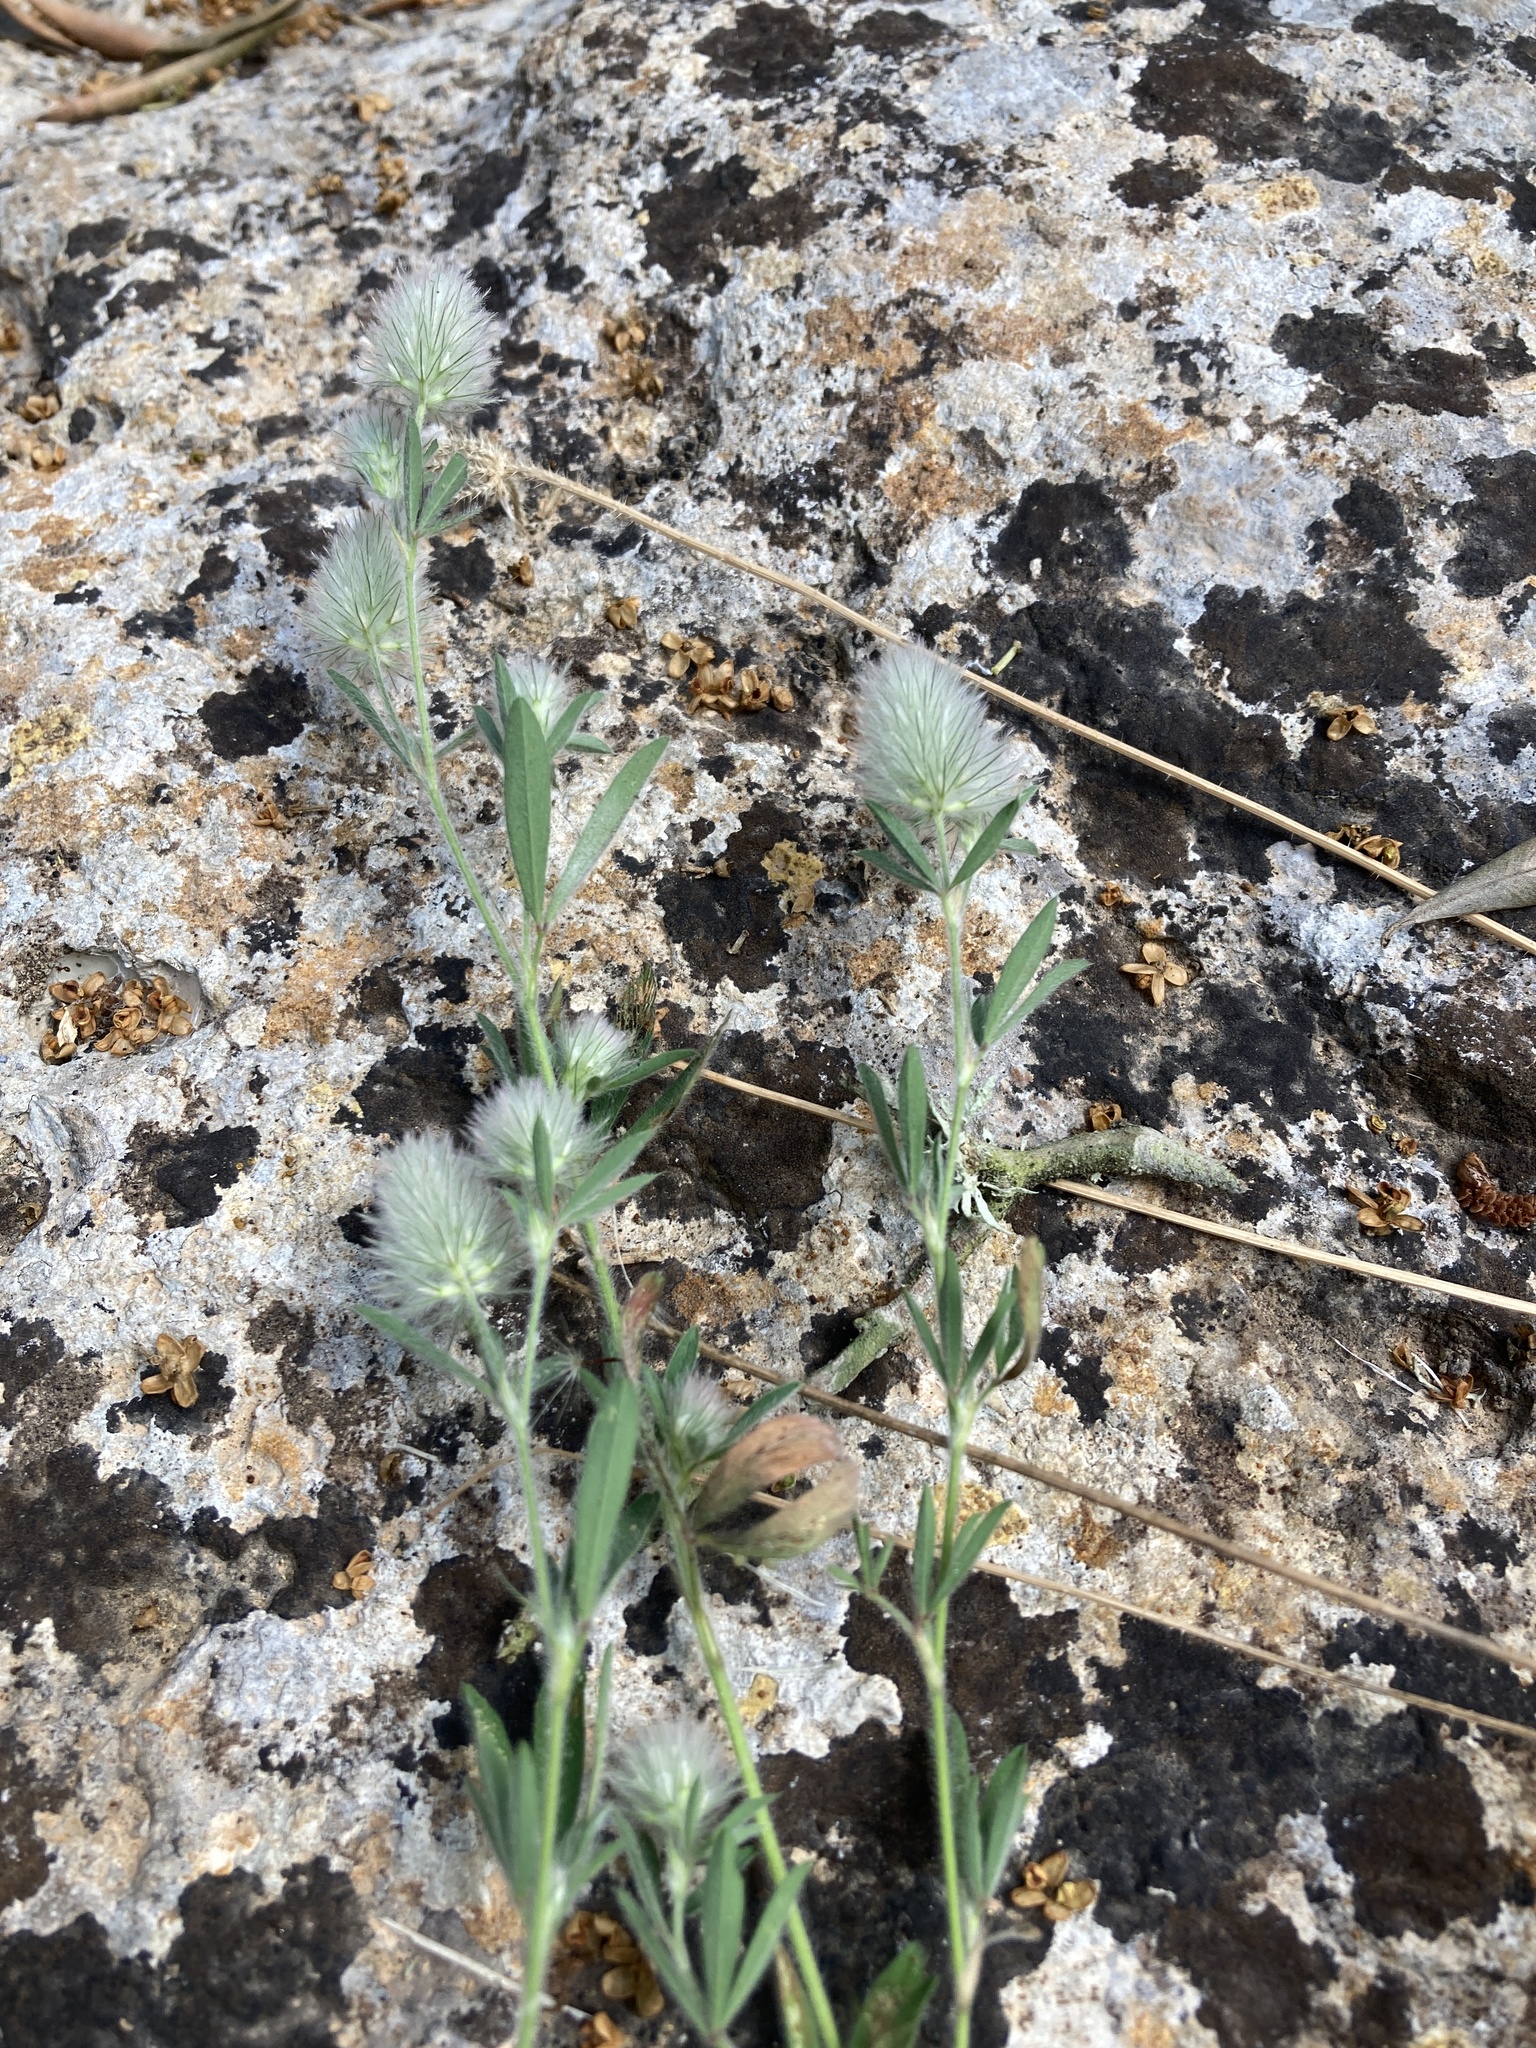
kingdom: Plantae
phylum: Tracheophyta
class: Magnoliopsida
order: Fabales
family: Fabaceae
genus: Trifolium
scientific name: Trifolium arvense
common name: Hare's-foot clover
